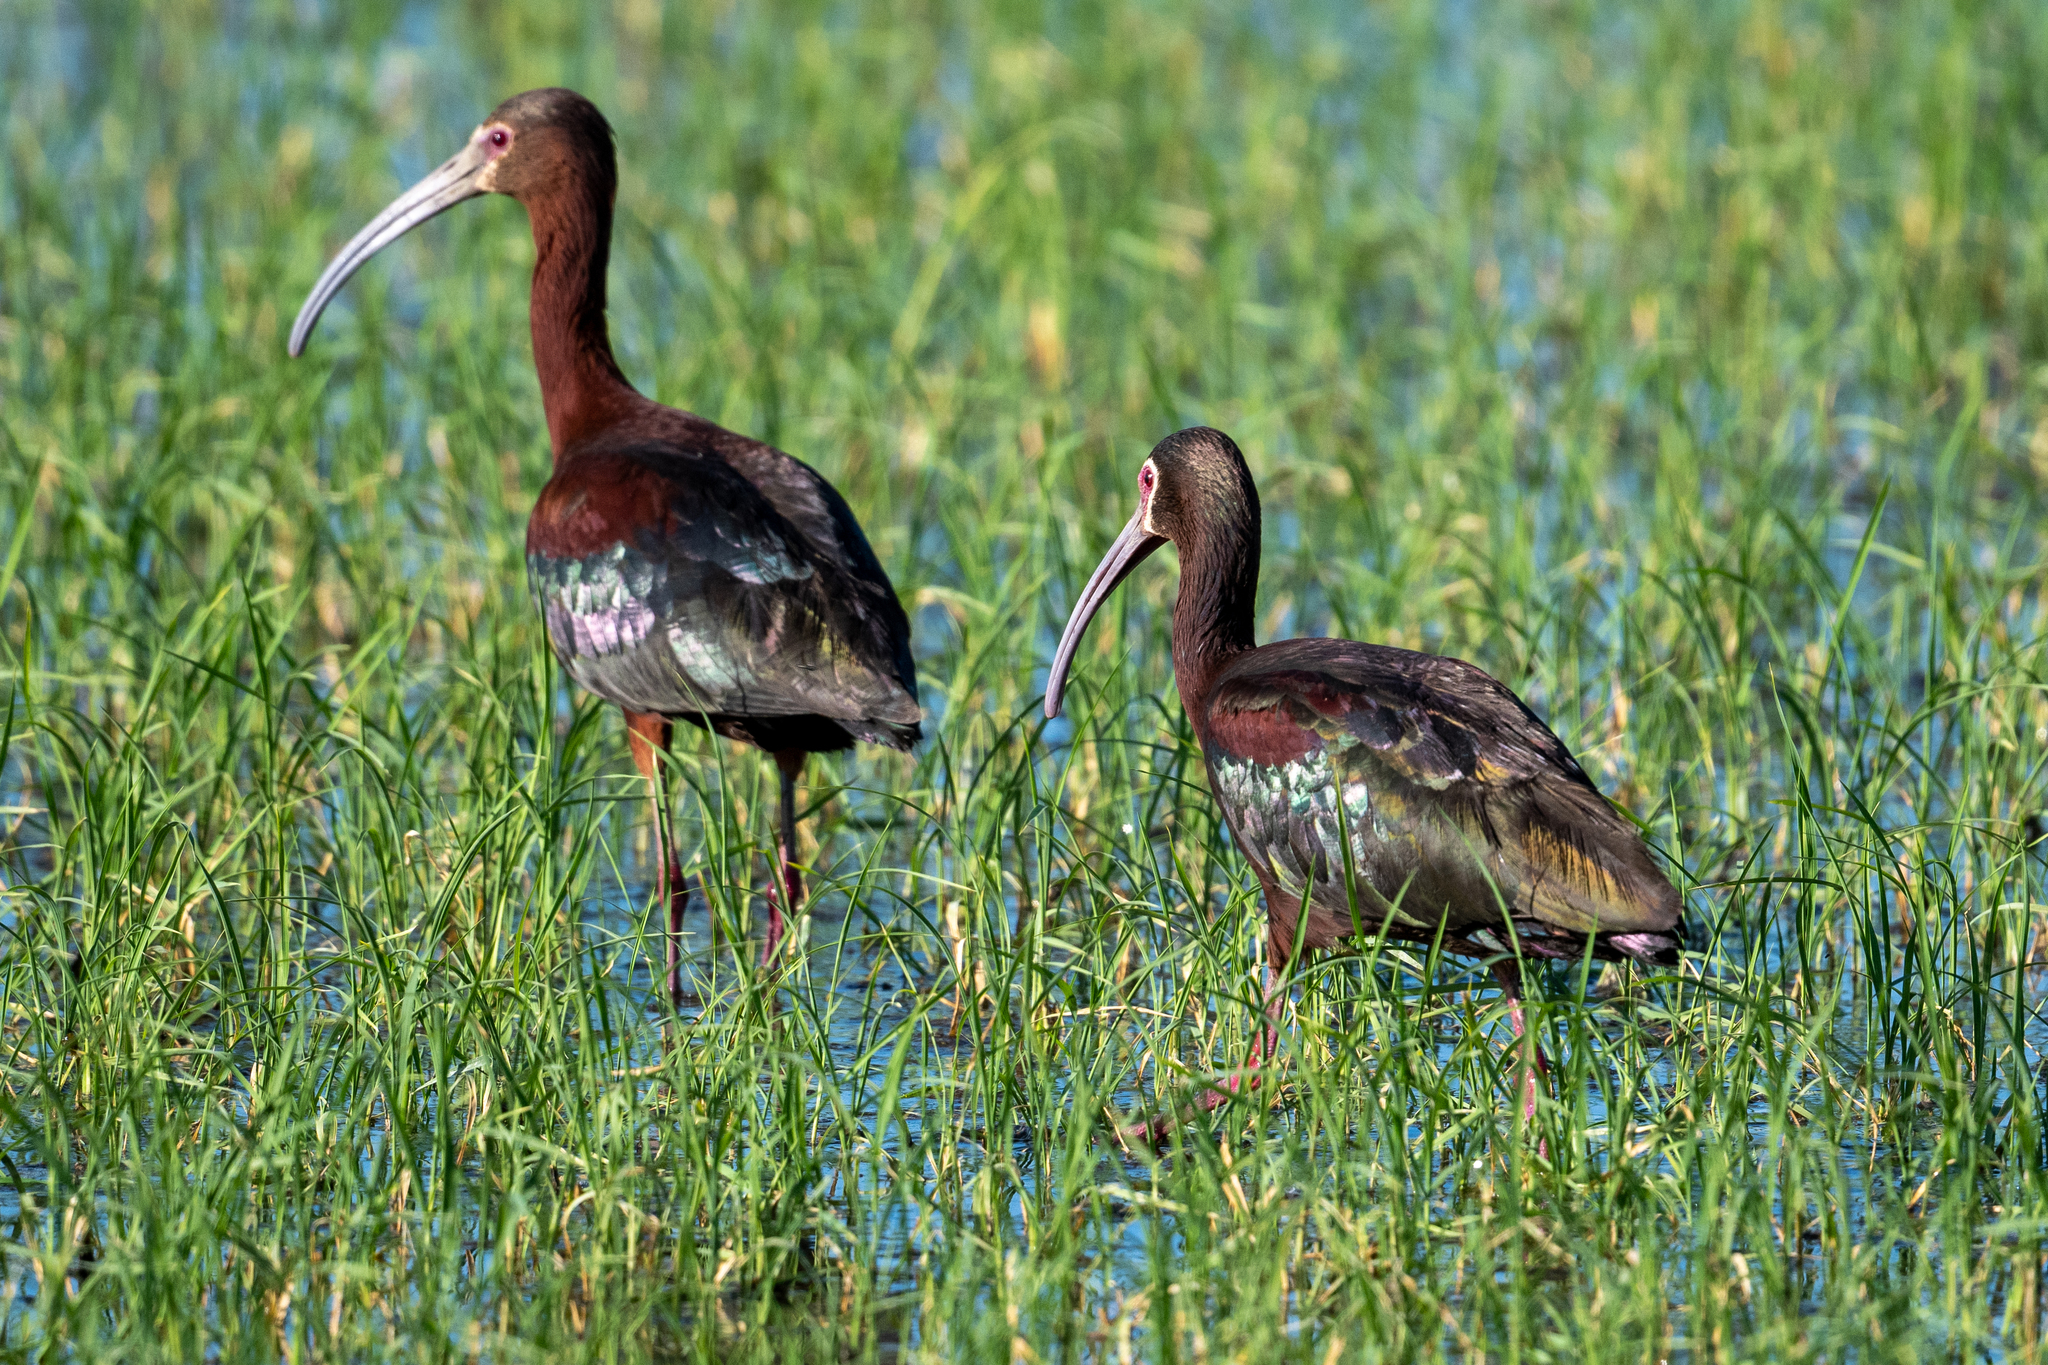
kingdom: Animalia
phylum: Chordata
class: Aves
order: Pelecaniformes
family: Threskiornithidae
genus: Plegadis
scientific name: Plegadis chihi
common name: White-faced ibis
